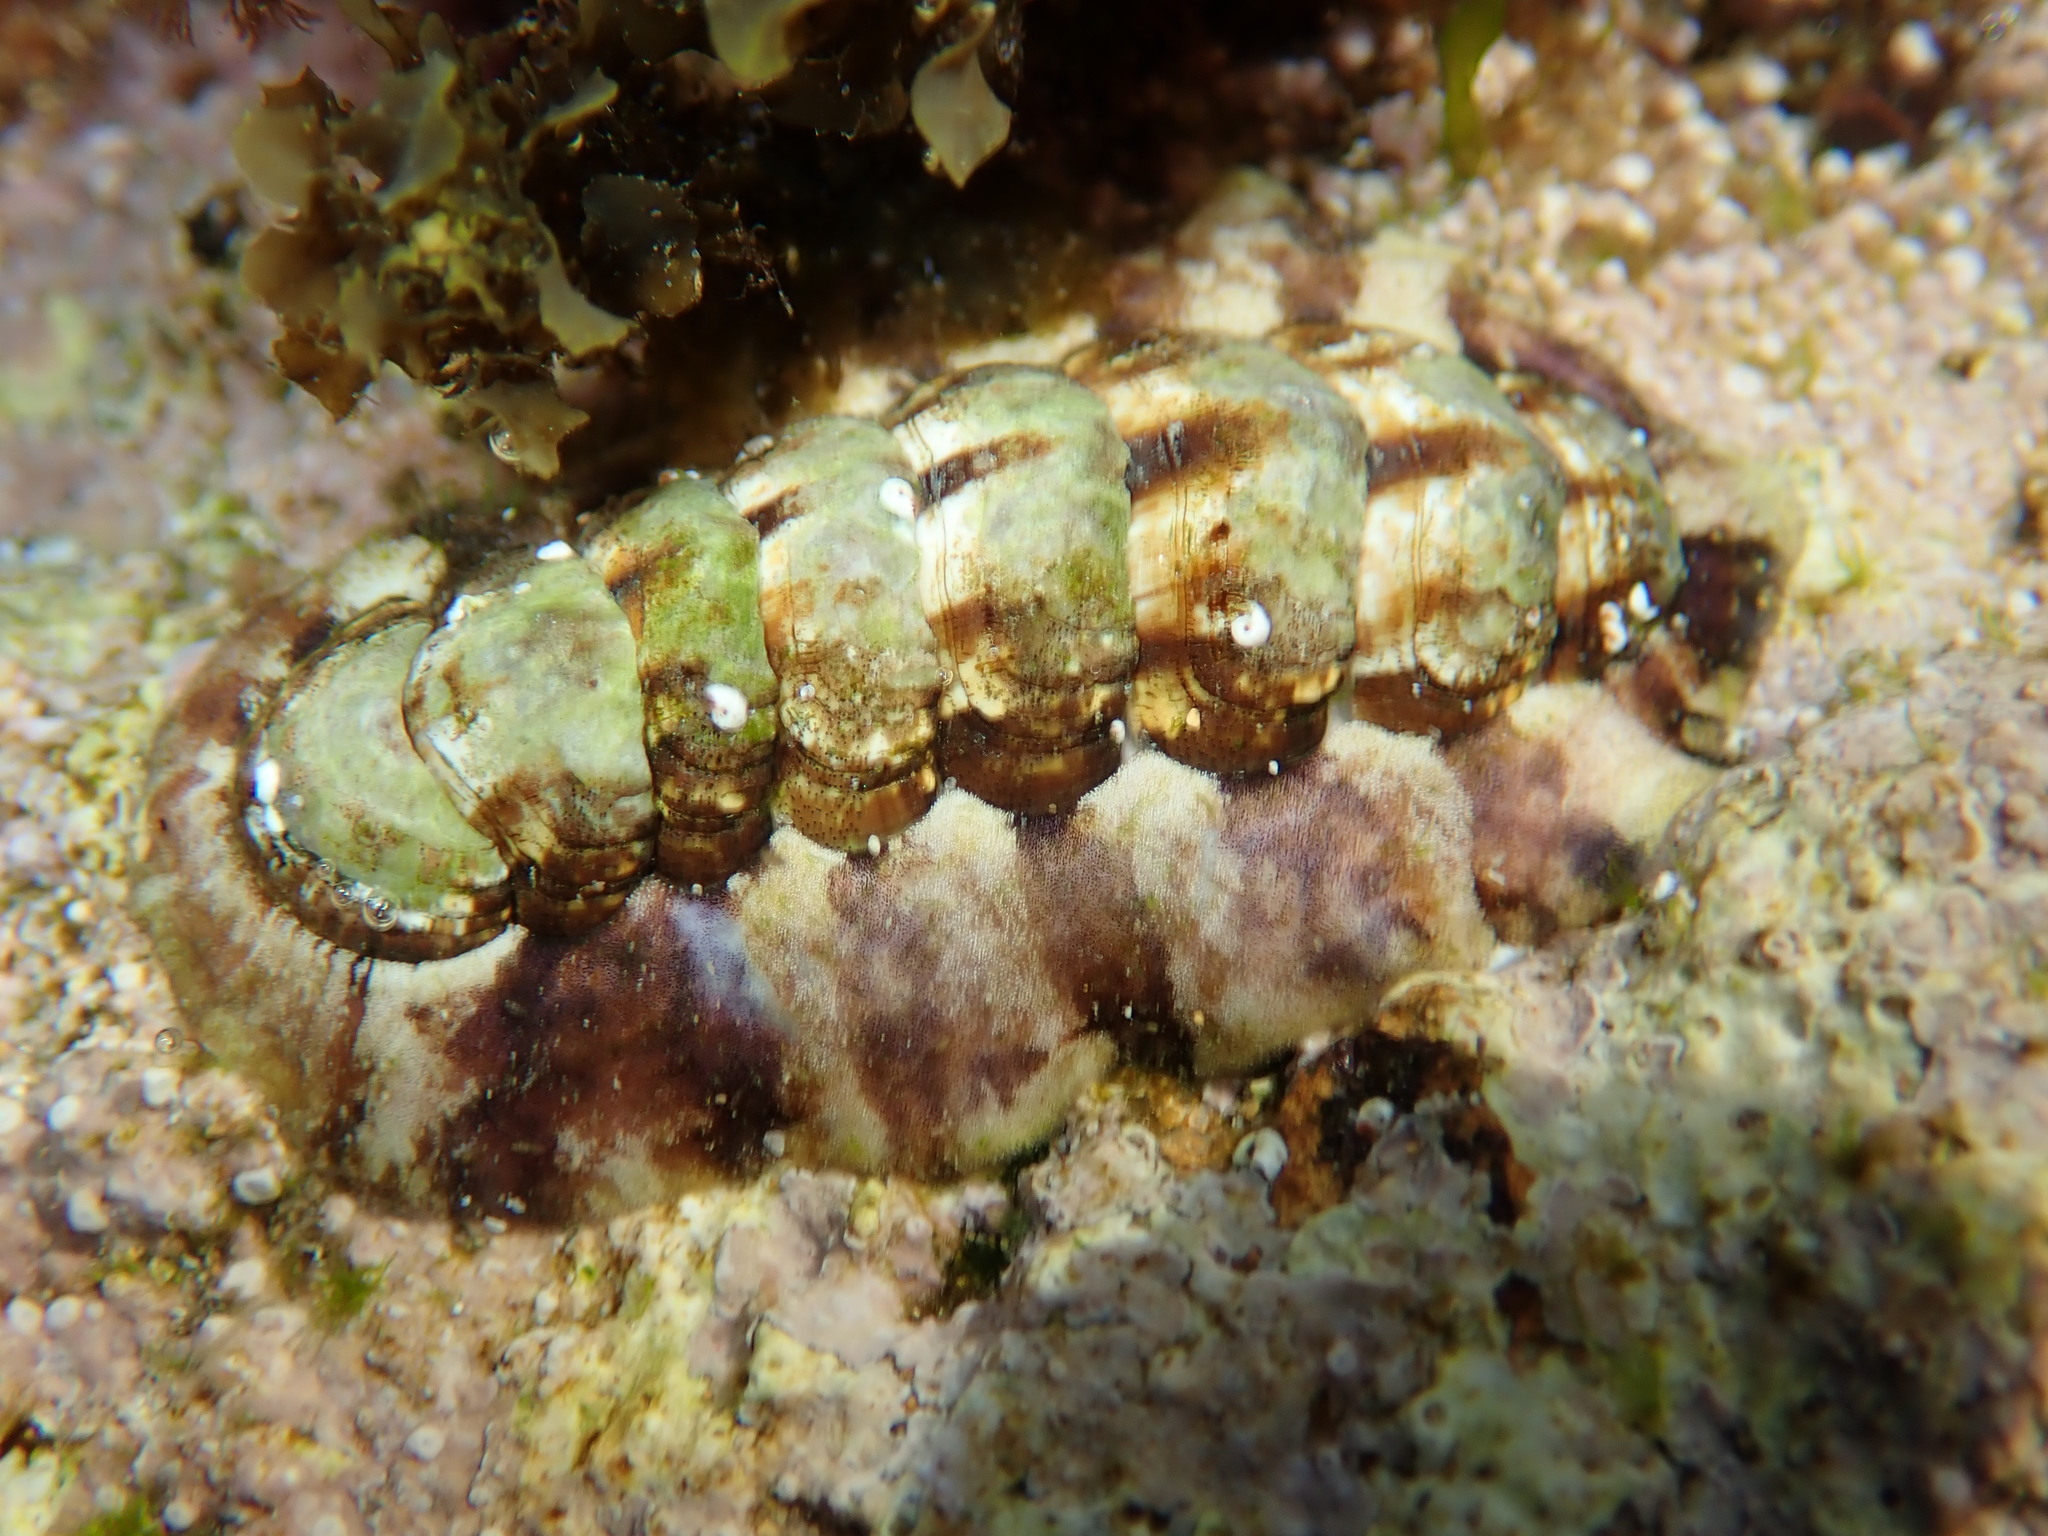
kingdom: Animalia
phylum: Mollusca
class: Polyplacophora
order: Chitonida
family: Chitonidae
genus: Onithochiton
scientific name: Onithochiton quercinus
